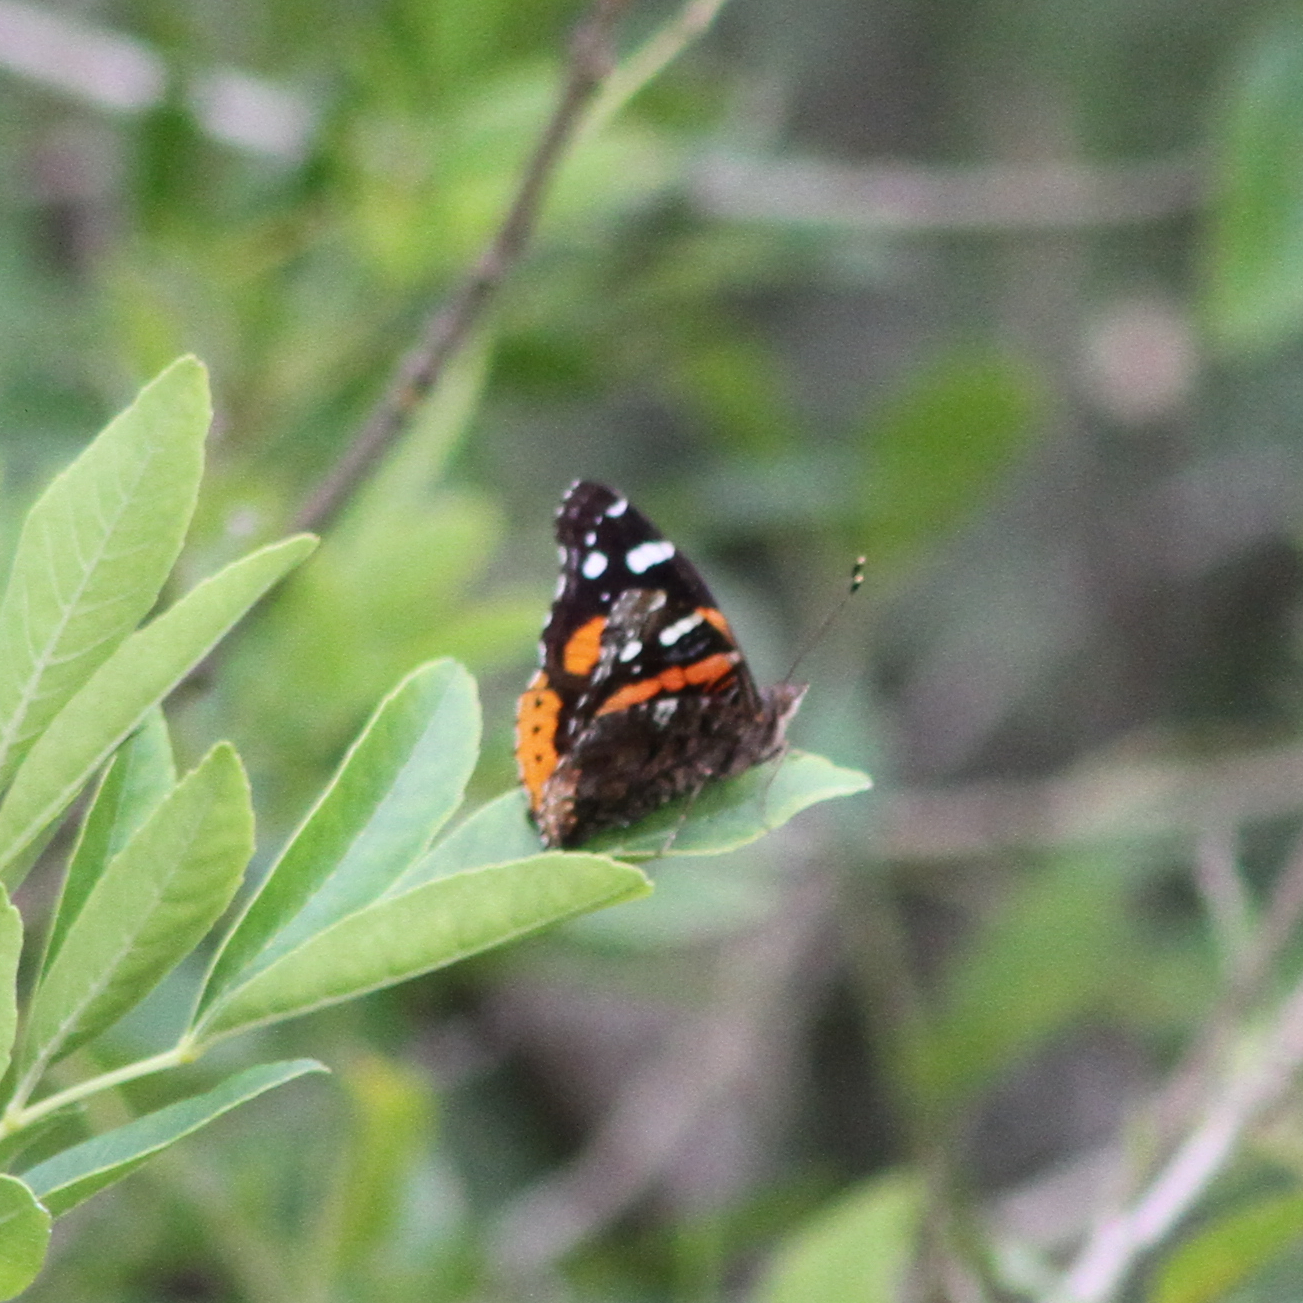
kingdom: Animalia
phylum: Arthropoda
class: Insecta
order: Lepidoptera
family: Nymphalidae
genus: Vanessa
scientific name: Vanessa atalanta
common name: Red admiral
